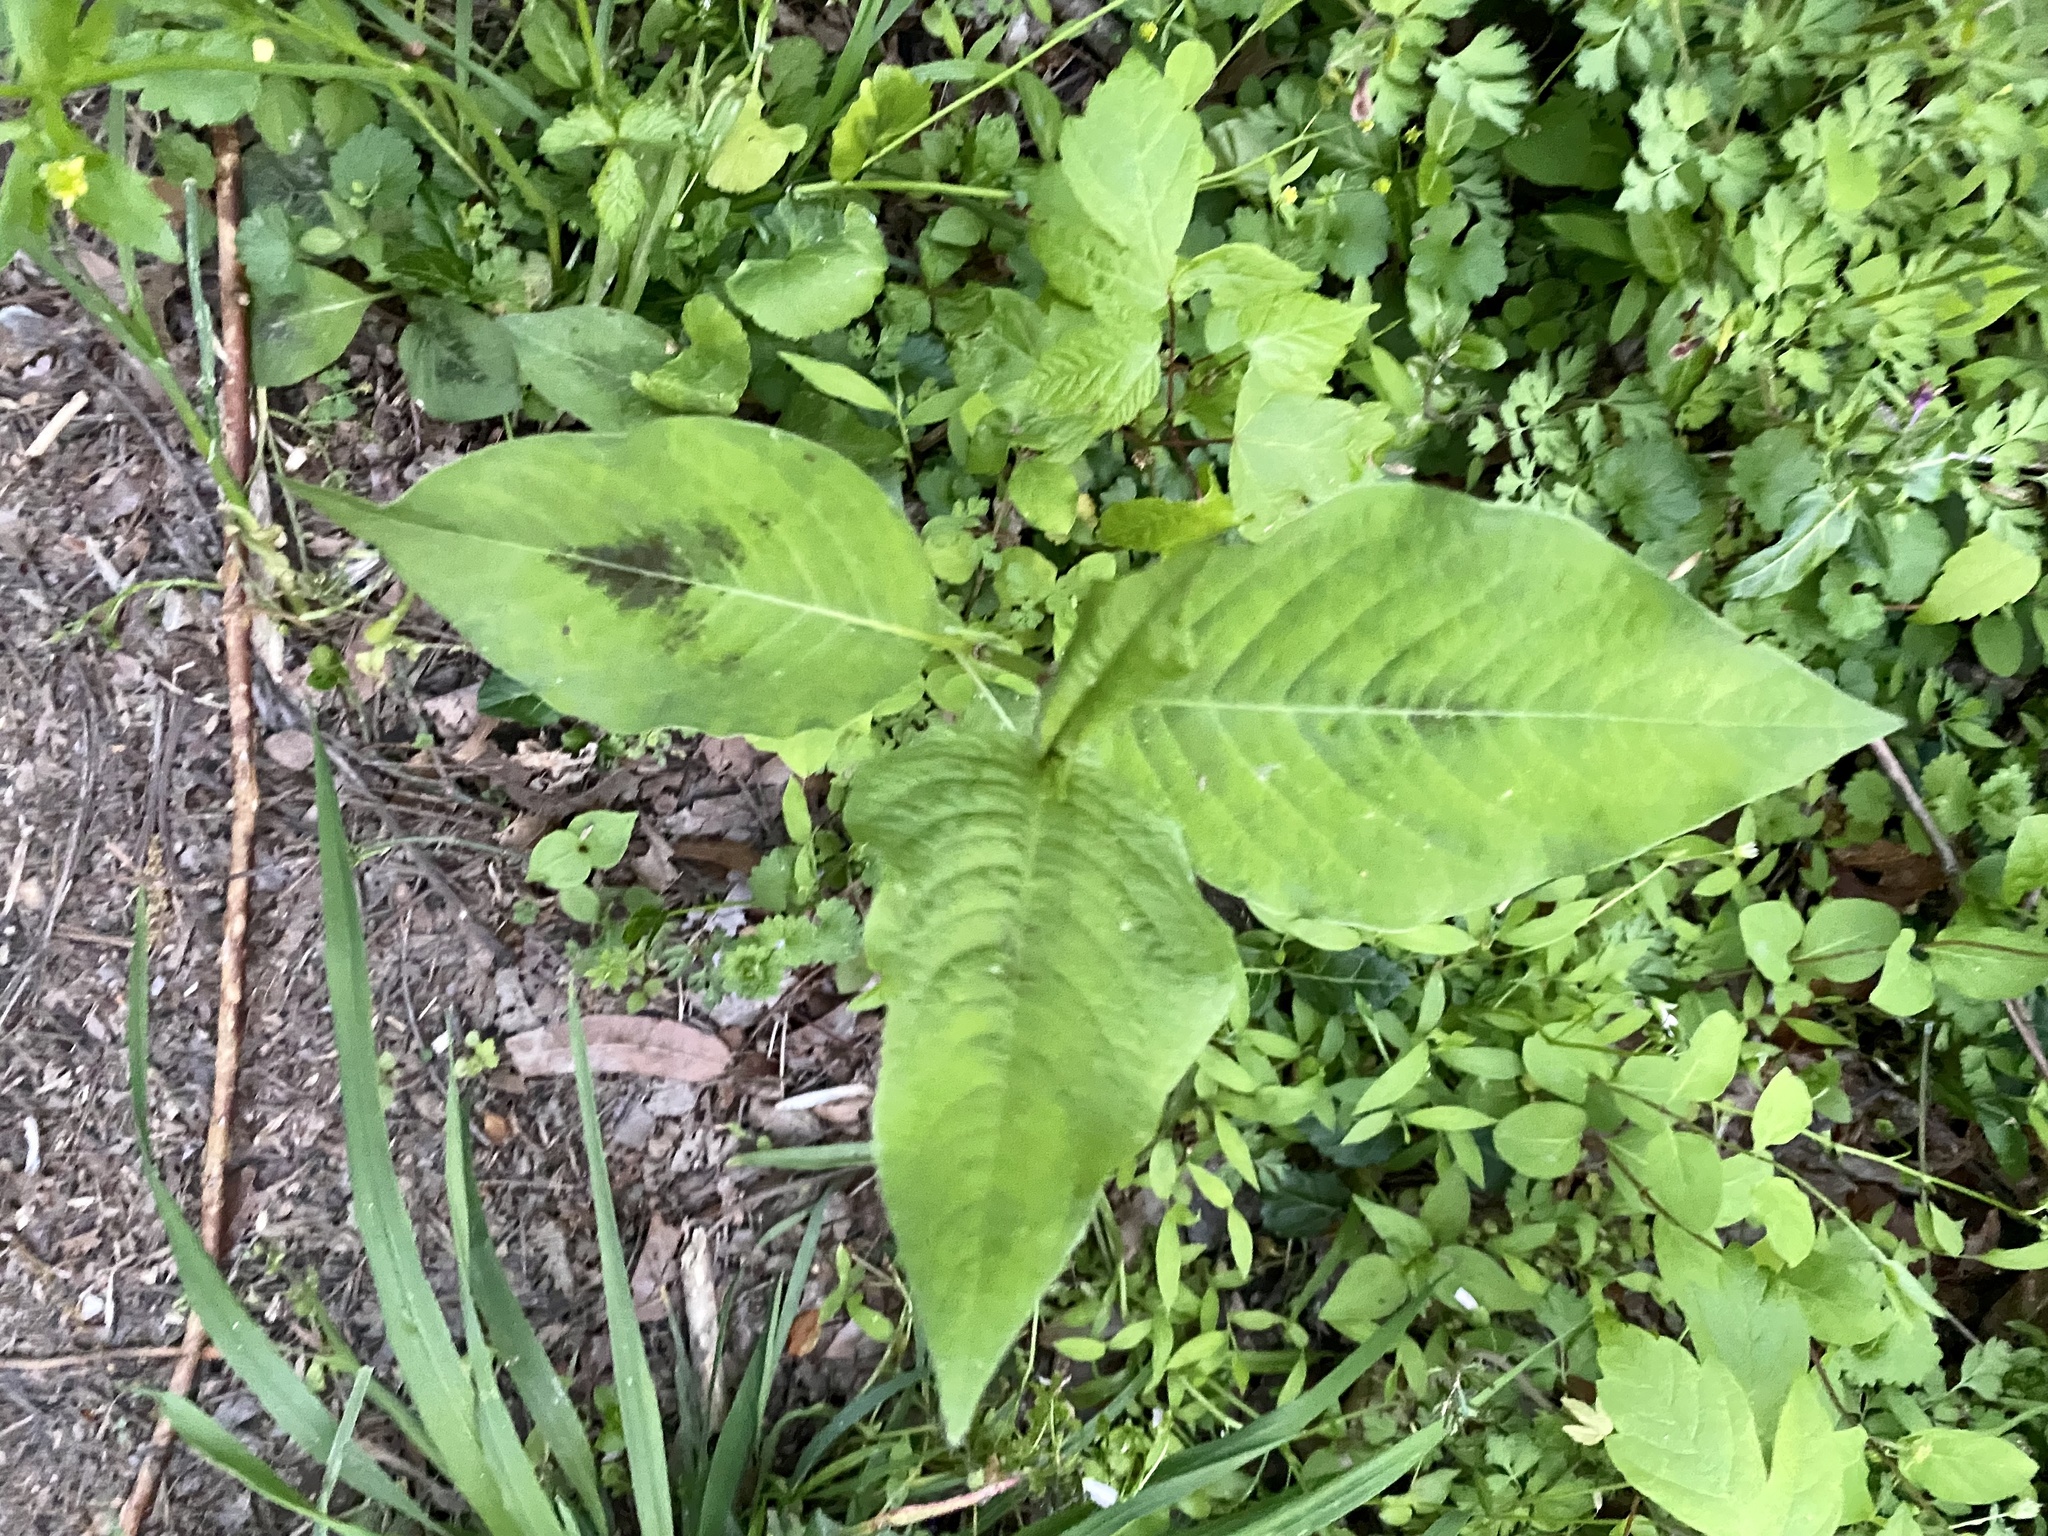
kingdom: Plantae
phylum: Tracheophyta
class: Magnoliopsida
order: Caryophyllales
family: Polygonaceae
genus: Persicaria
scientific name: Persicaria virginiana
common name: Jumpseed
